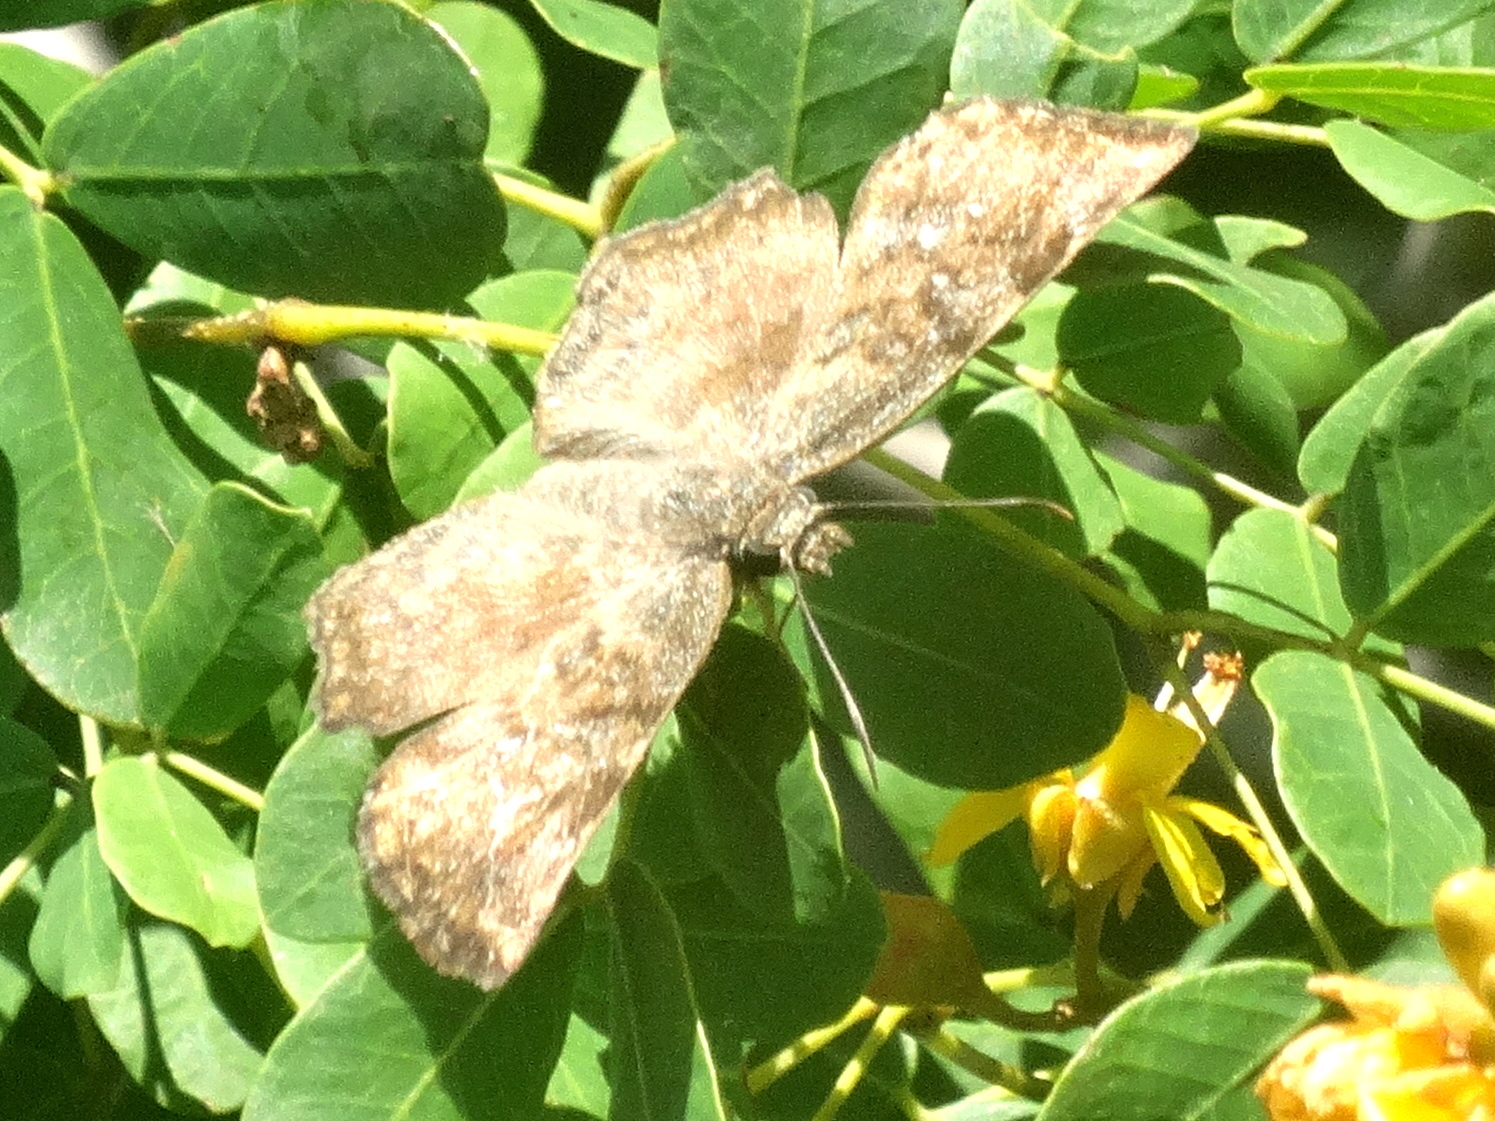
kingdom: Animalia
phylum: Arthropoda
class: Insecta
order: Lepidoptera
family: Hesperiidae
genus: Antigonus
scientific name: Antigonus erosus
